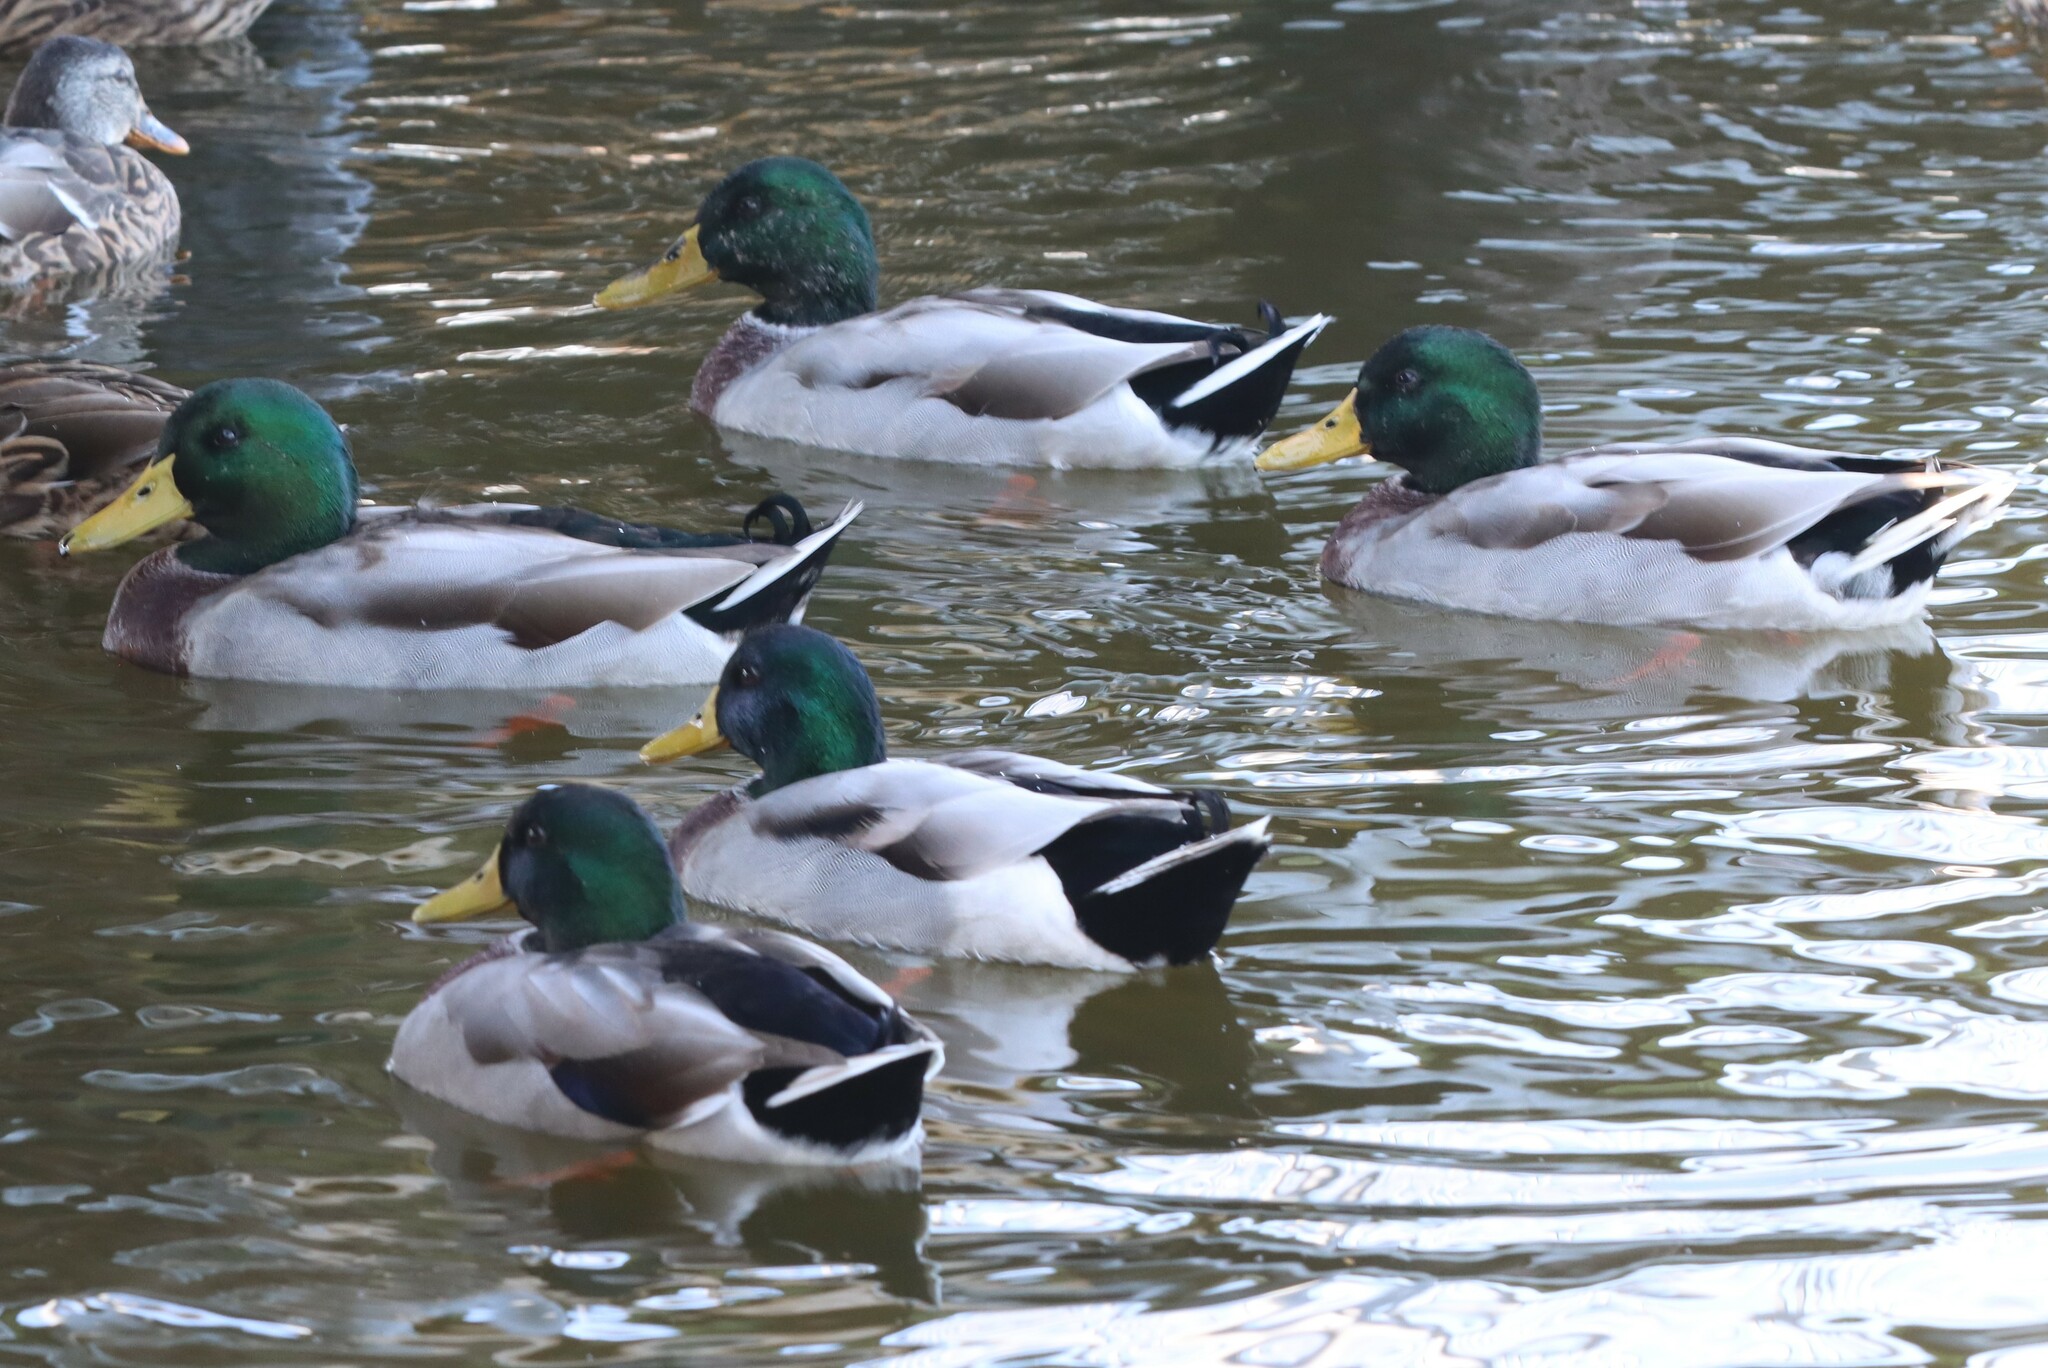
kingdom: Animalia
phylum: Chordata
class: Aves
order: Anseriformes
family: Anatidae
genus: Anas
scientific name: Anas platyrhynchos
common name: Mallard
